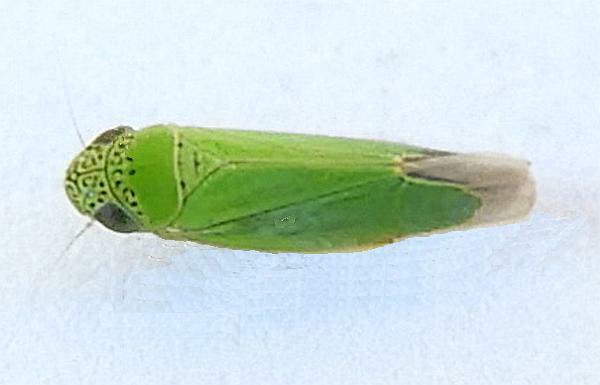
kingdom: Animalia
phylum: Arthropoda
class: Insecta
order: Hemiptera
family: Cicadellidae
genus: Hortensia
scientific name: Hortensia similis
